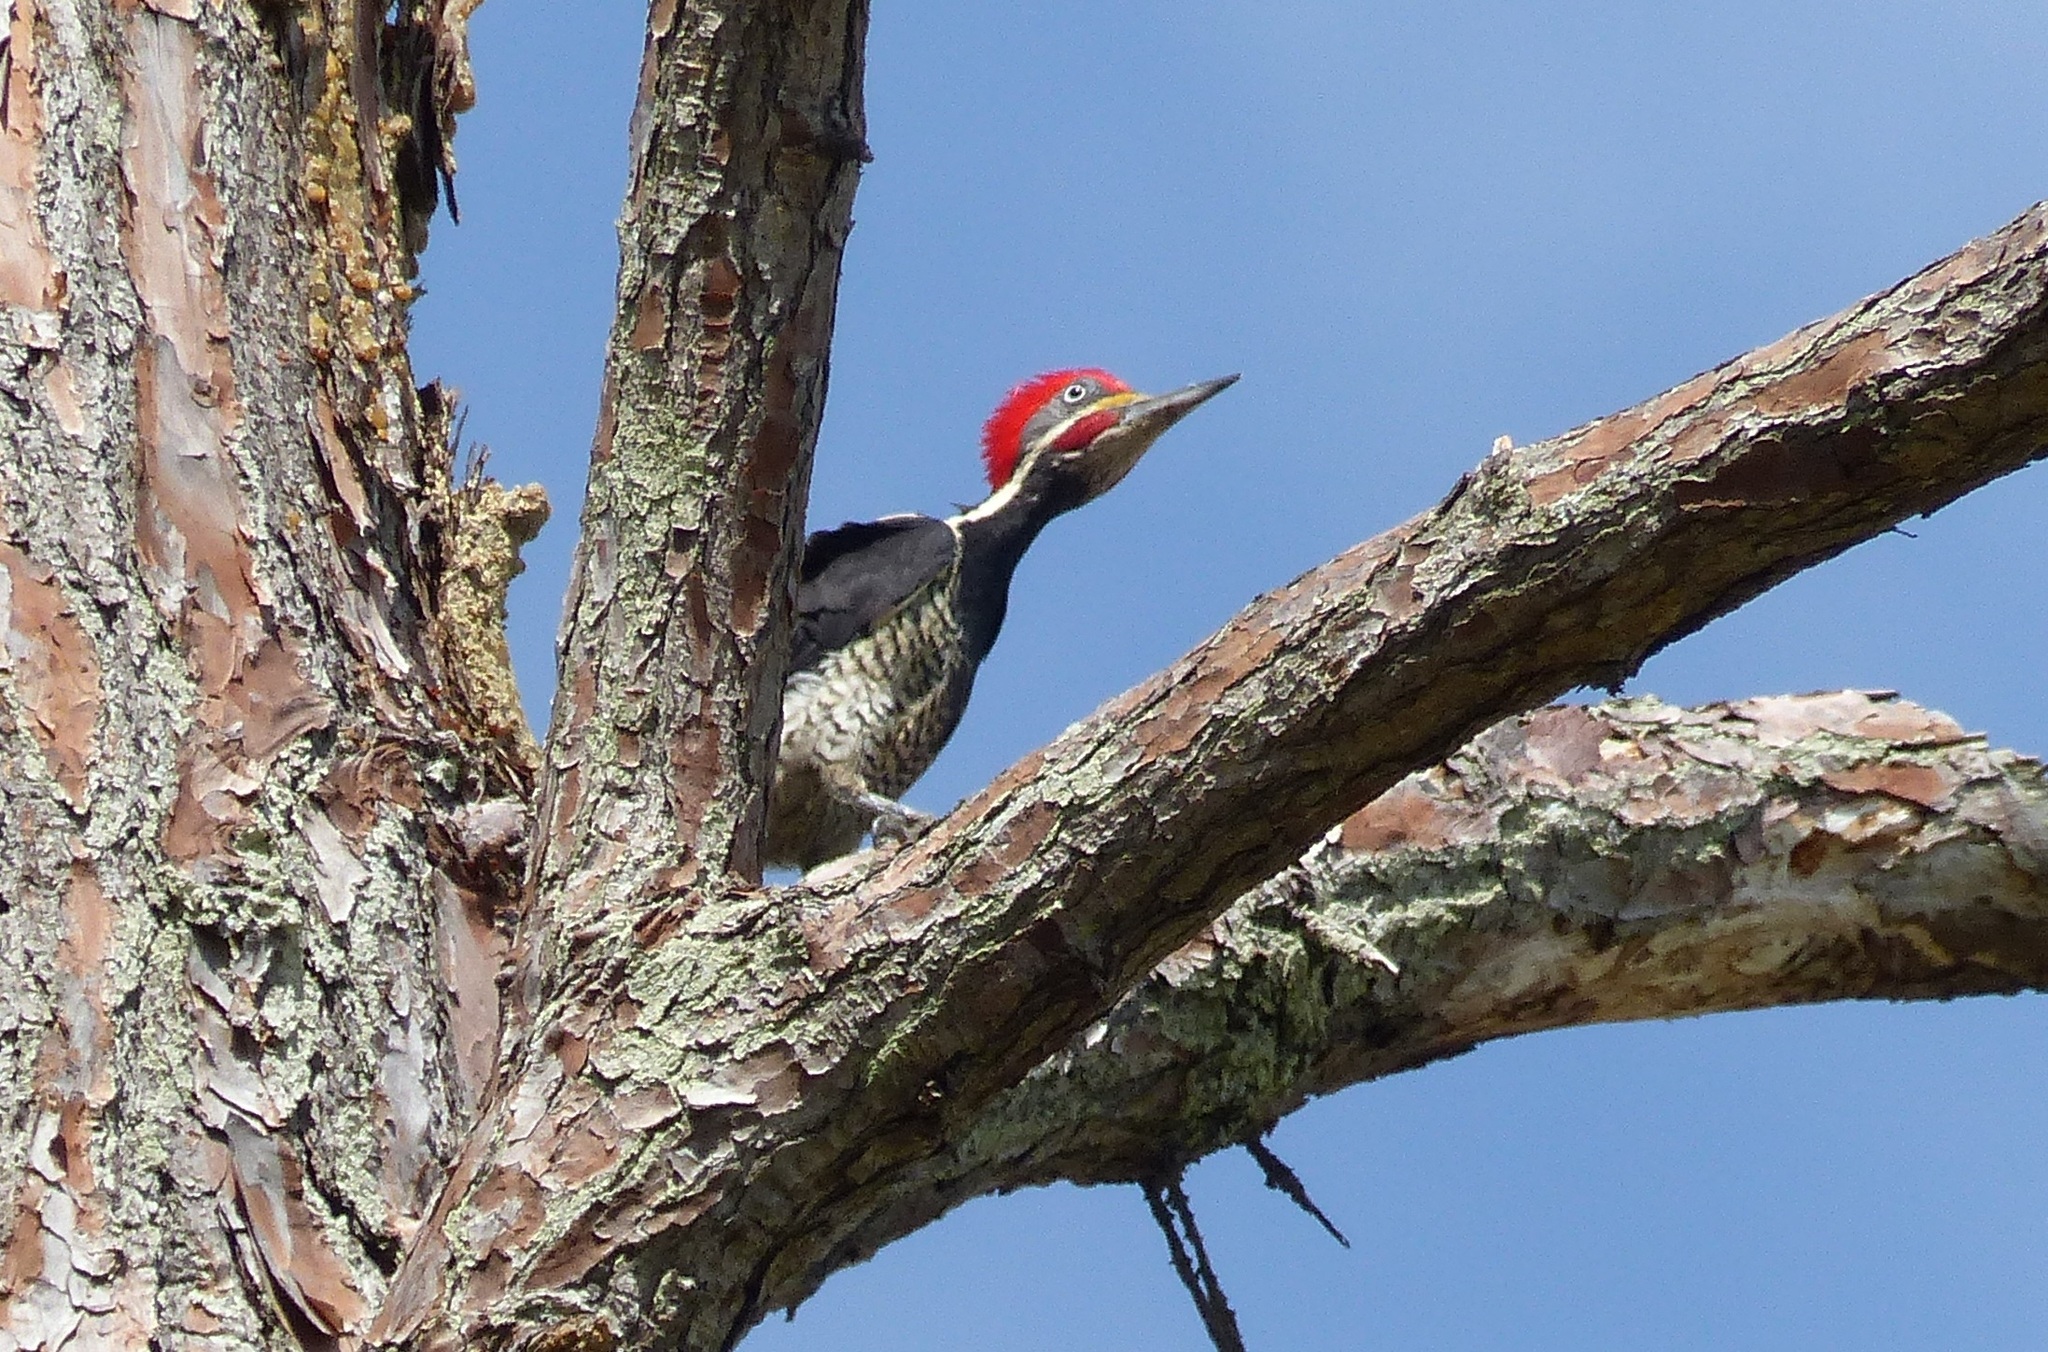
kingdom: Animalia
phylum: Chordata
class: Aves
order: Piciformes
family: Picidae
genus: Dryocopus
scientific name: Dryocopus lineatus
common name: Lineated woodpecker
